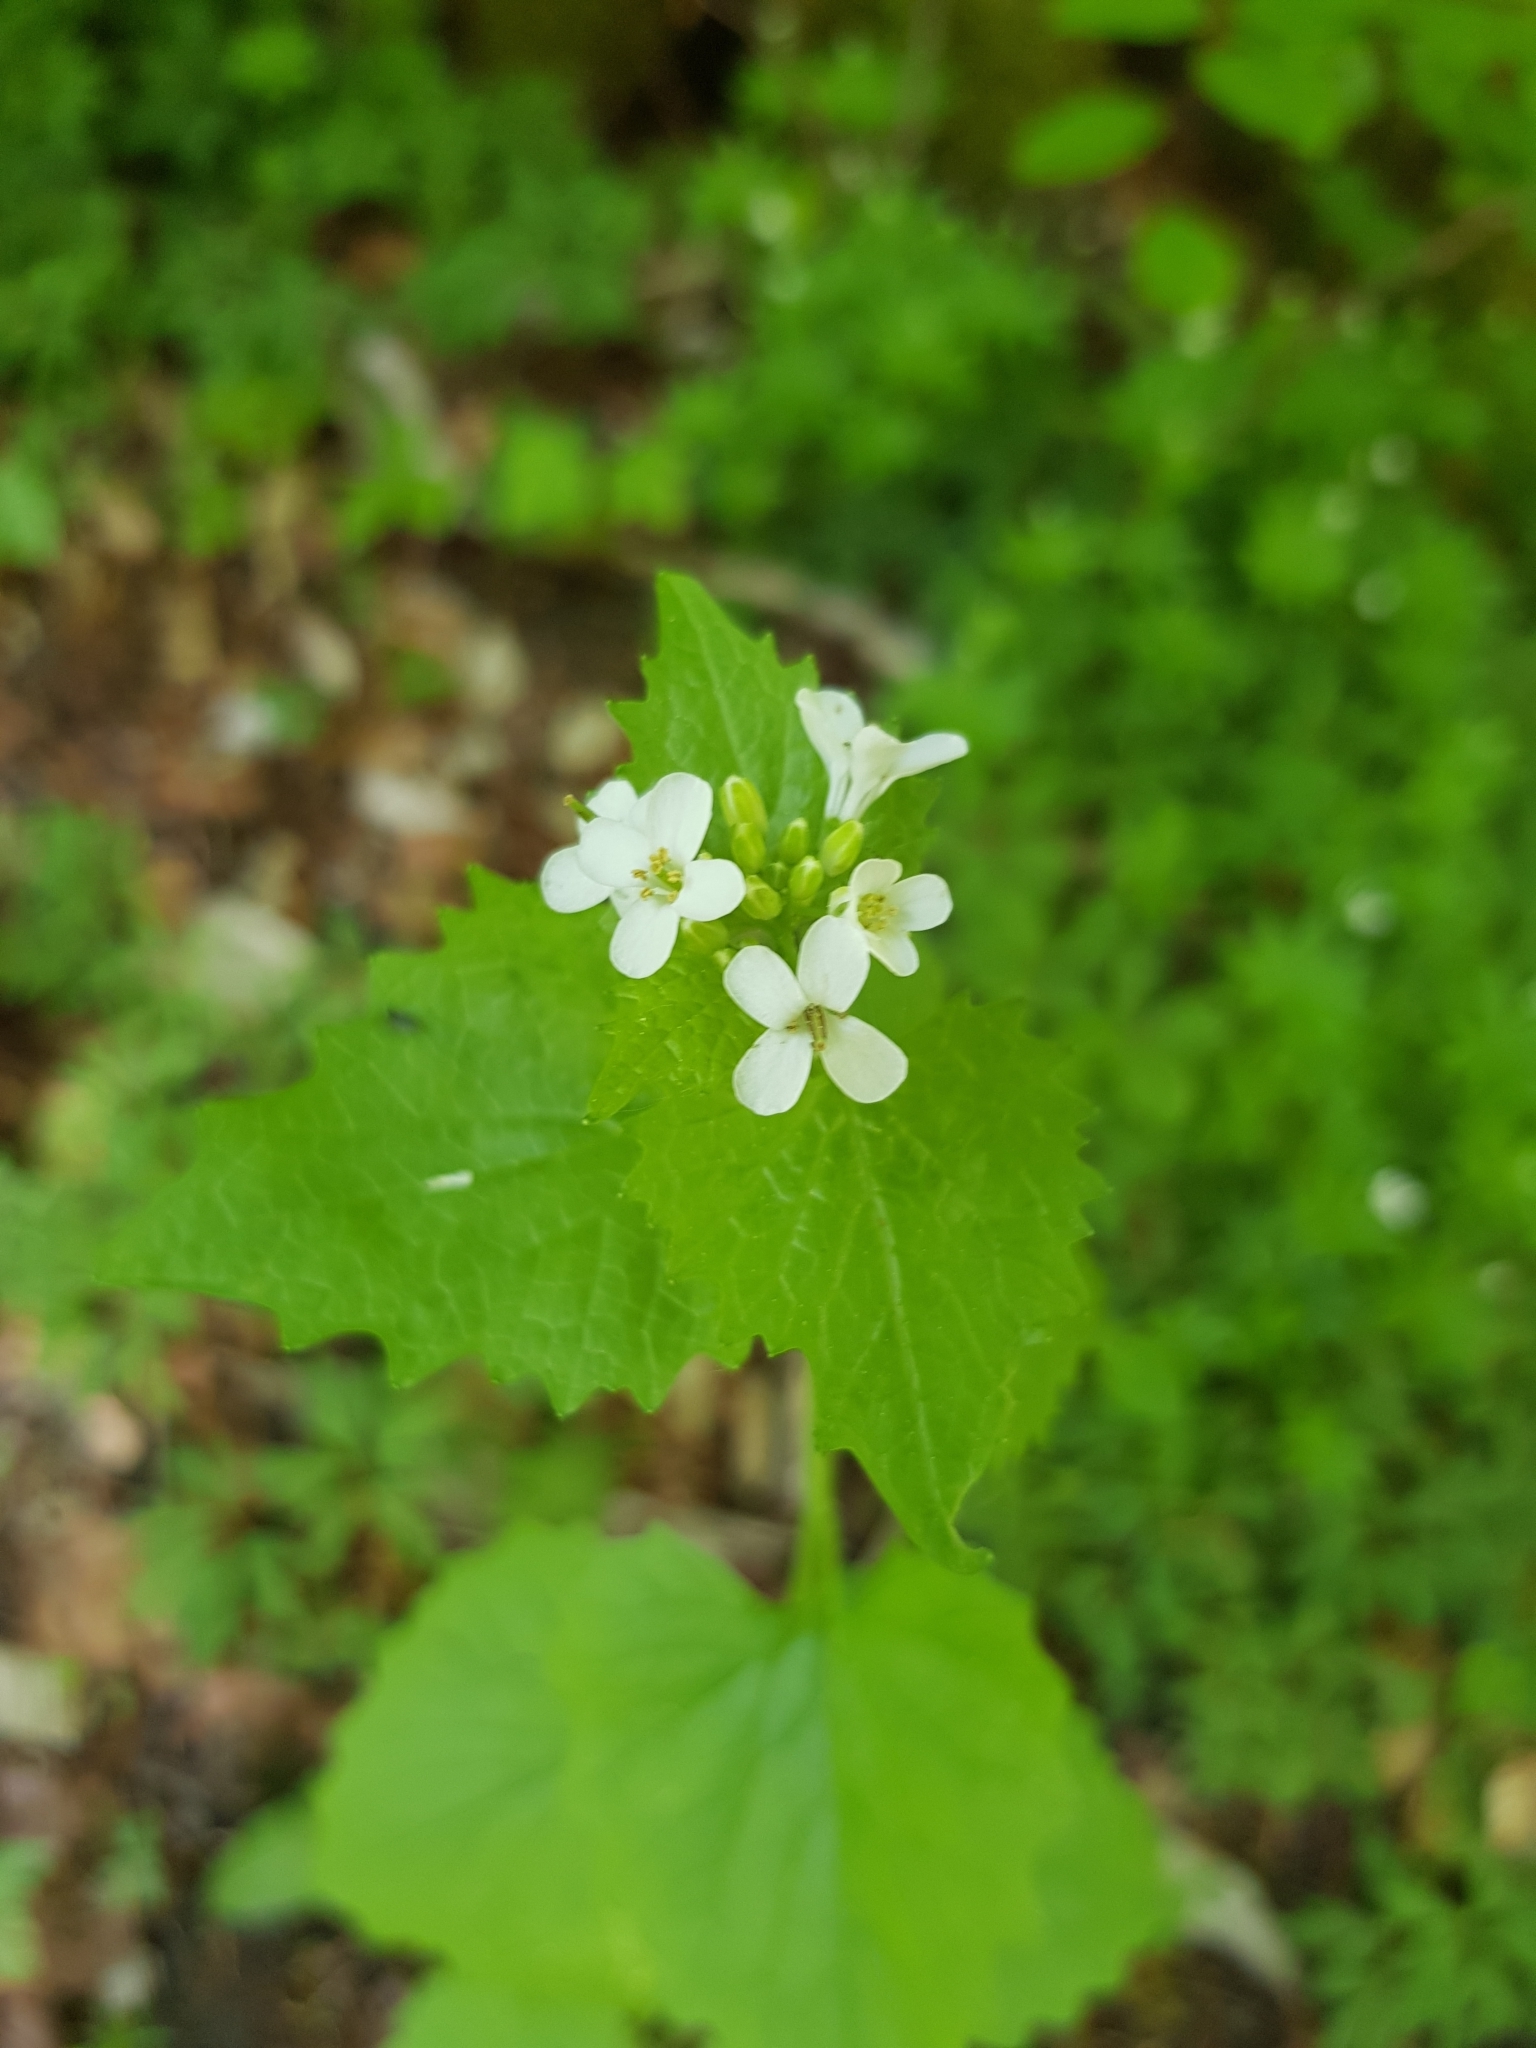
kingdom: Plantae
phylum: Tracheophyta
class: Magnoliopsida
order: Brassicales
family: Brassicaceae
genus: Alliaria
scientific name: Alliaria petiolata
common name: Garlic mustard
